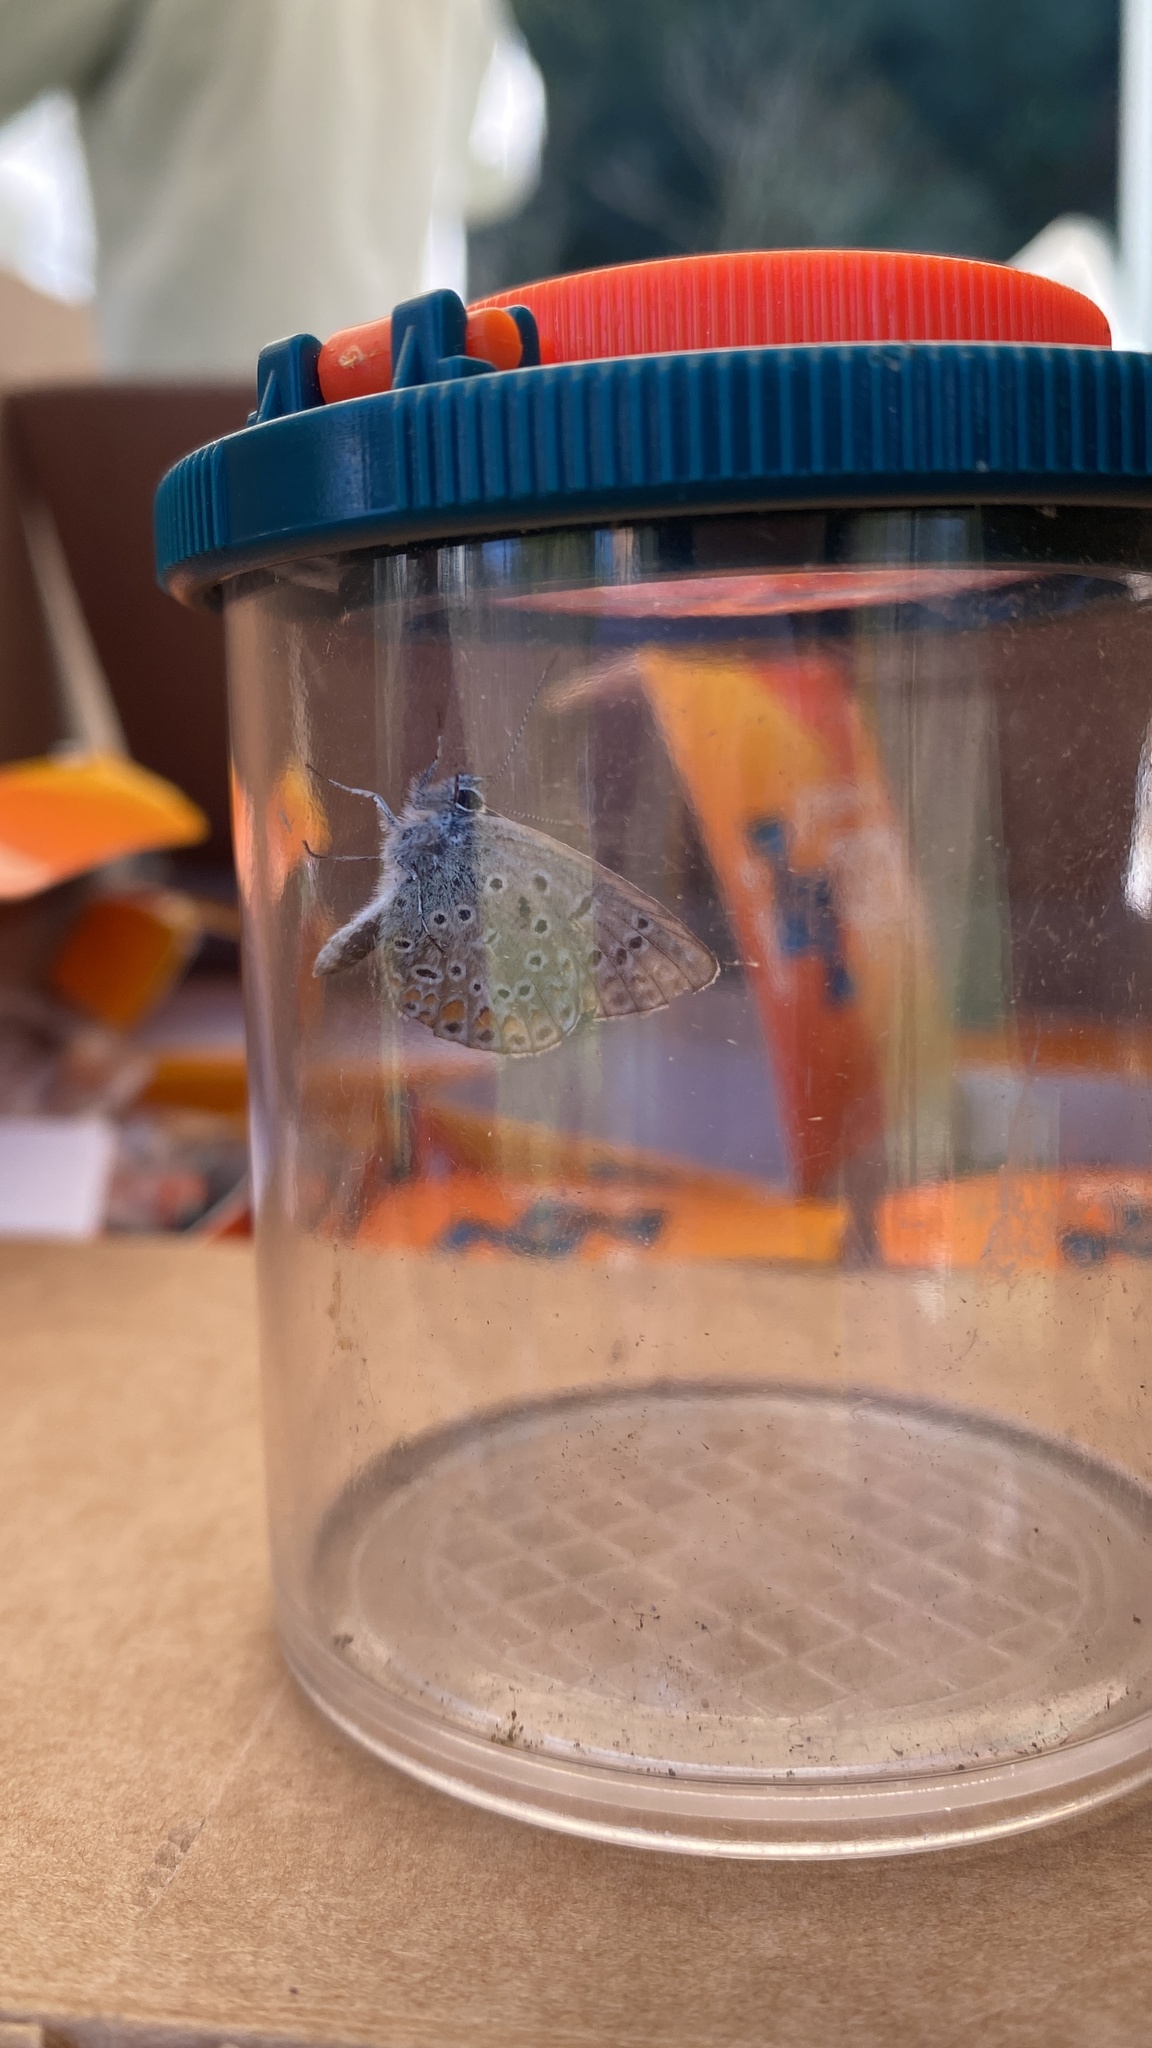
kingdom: Animalia
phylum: Arthropoda
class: Insecta
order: Lepidoptera
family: Lycaenidae
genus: Polyommatus
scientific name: Polyommatus icarus
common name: Common blue
